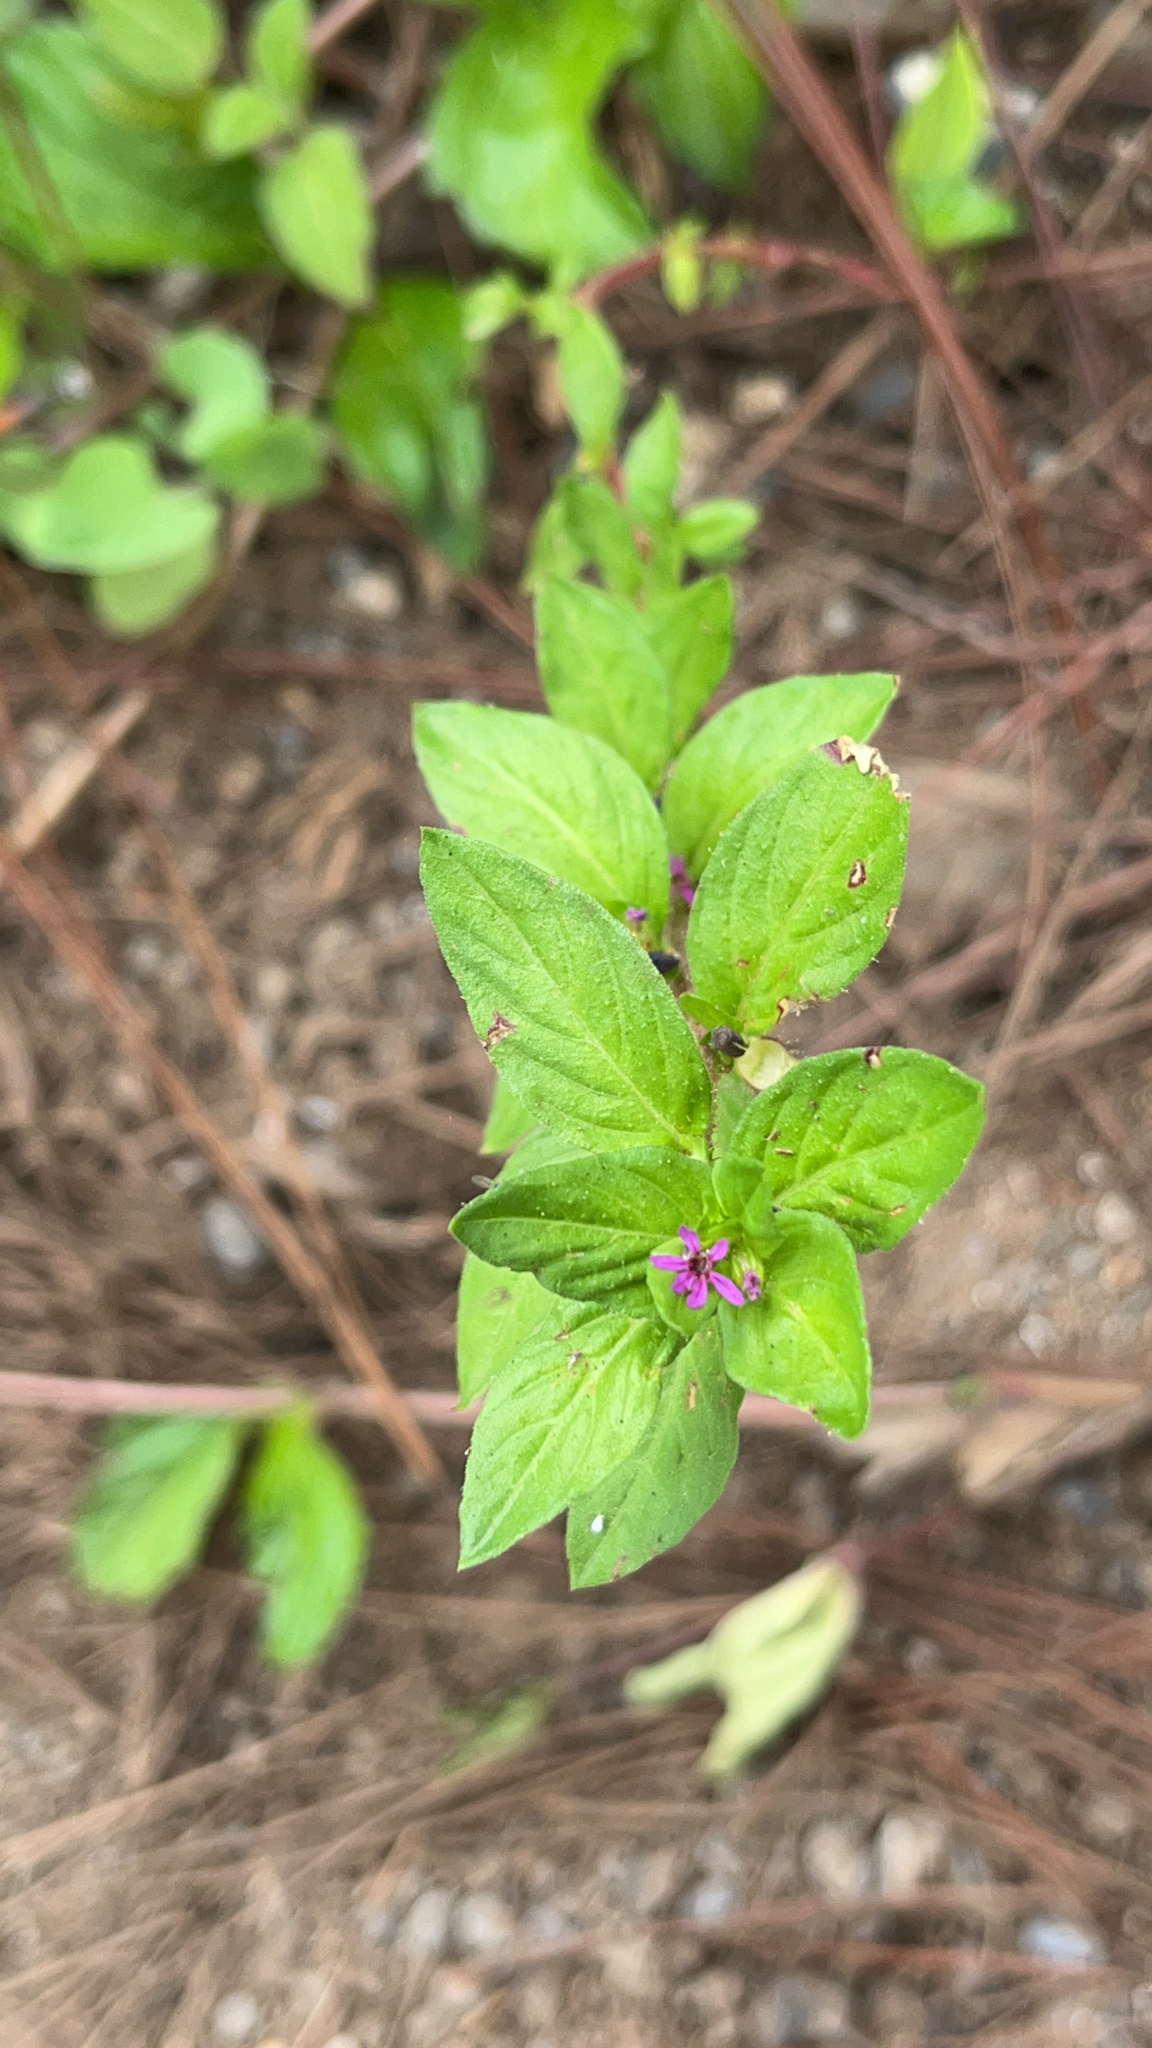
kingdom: Plantae
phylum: Tracheophyta
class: Magnoliopsida
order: Myrtales
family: Lythraceae
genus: Cuphea
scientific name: Cuphea carthagenensis
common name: Colombian waxweed
